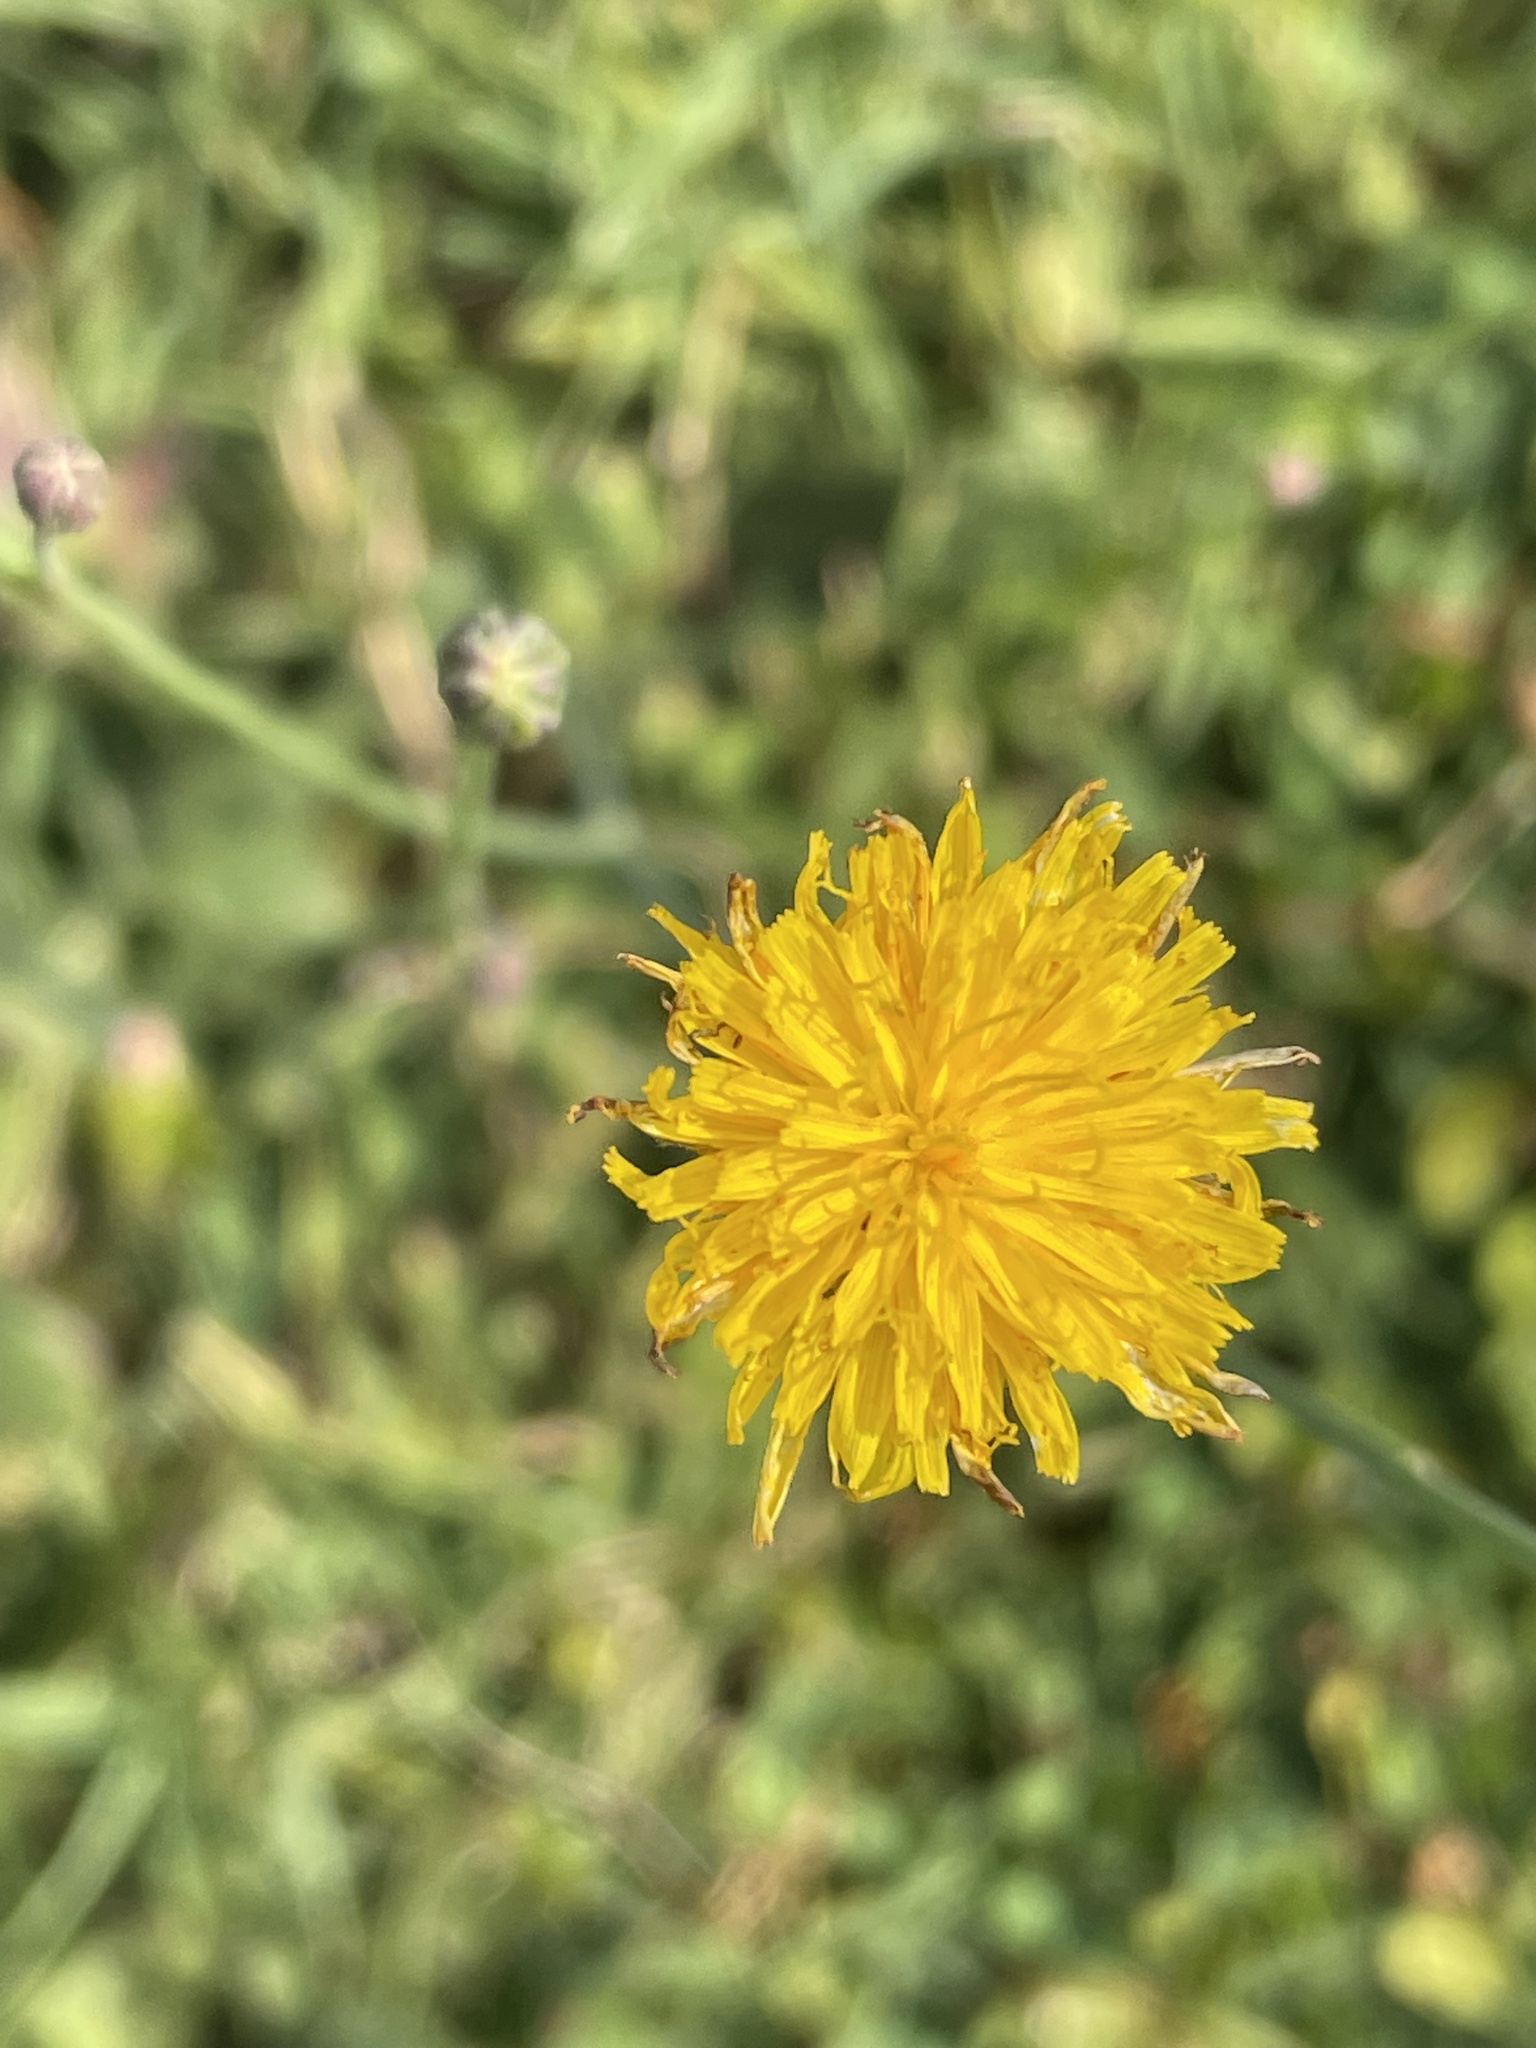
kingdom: Plantae
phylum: Tracheophyta
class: Magnoliopsida
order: Asterales
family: Asteraceae
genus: Hypochaeris
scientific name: Hypochaeris radicata
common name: Flatweed
